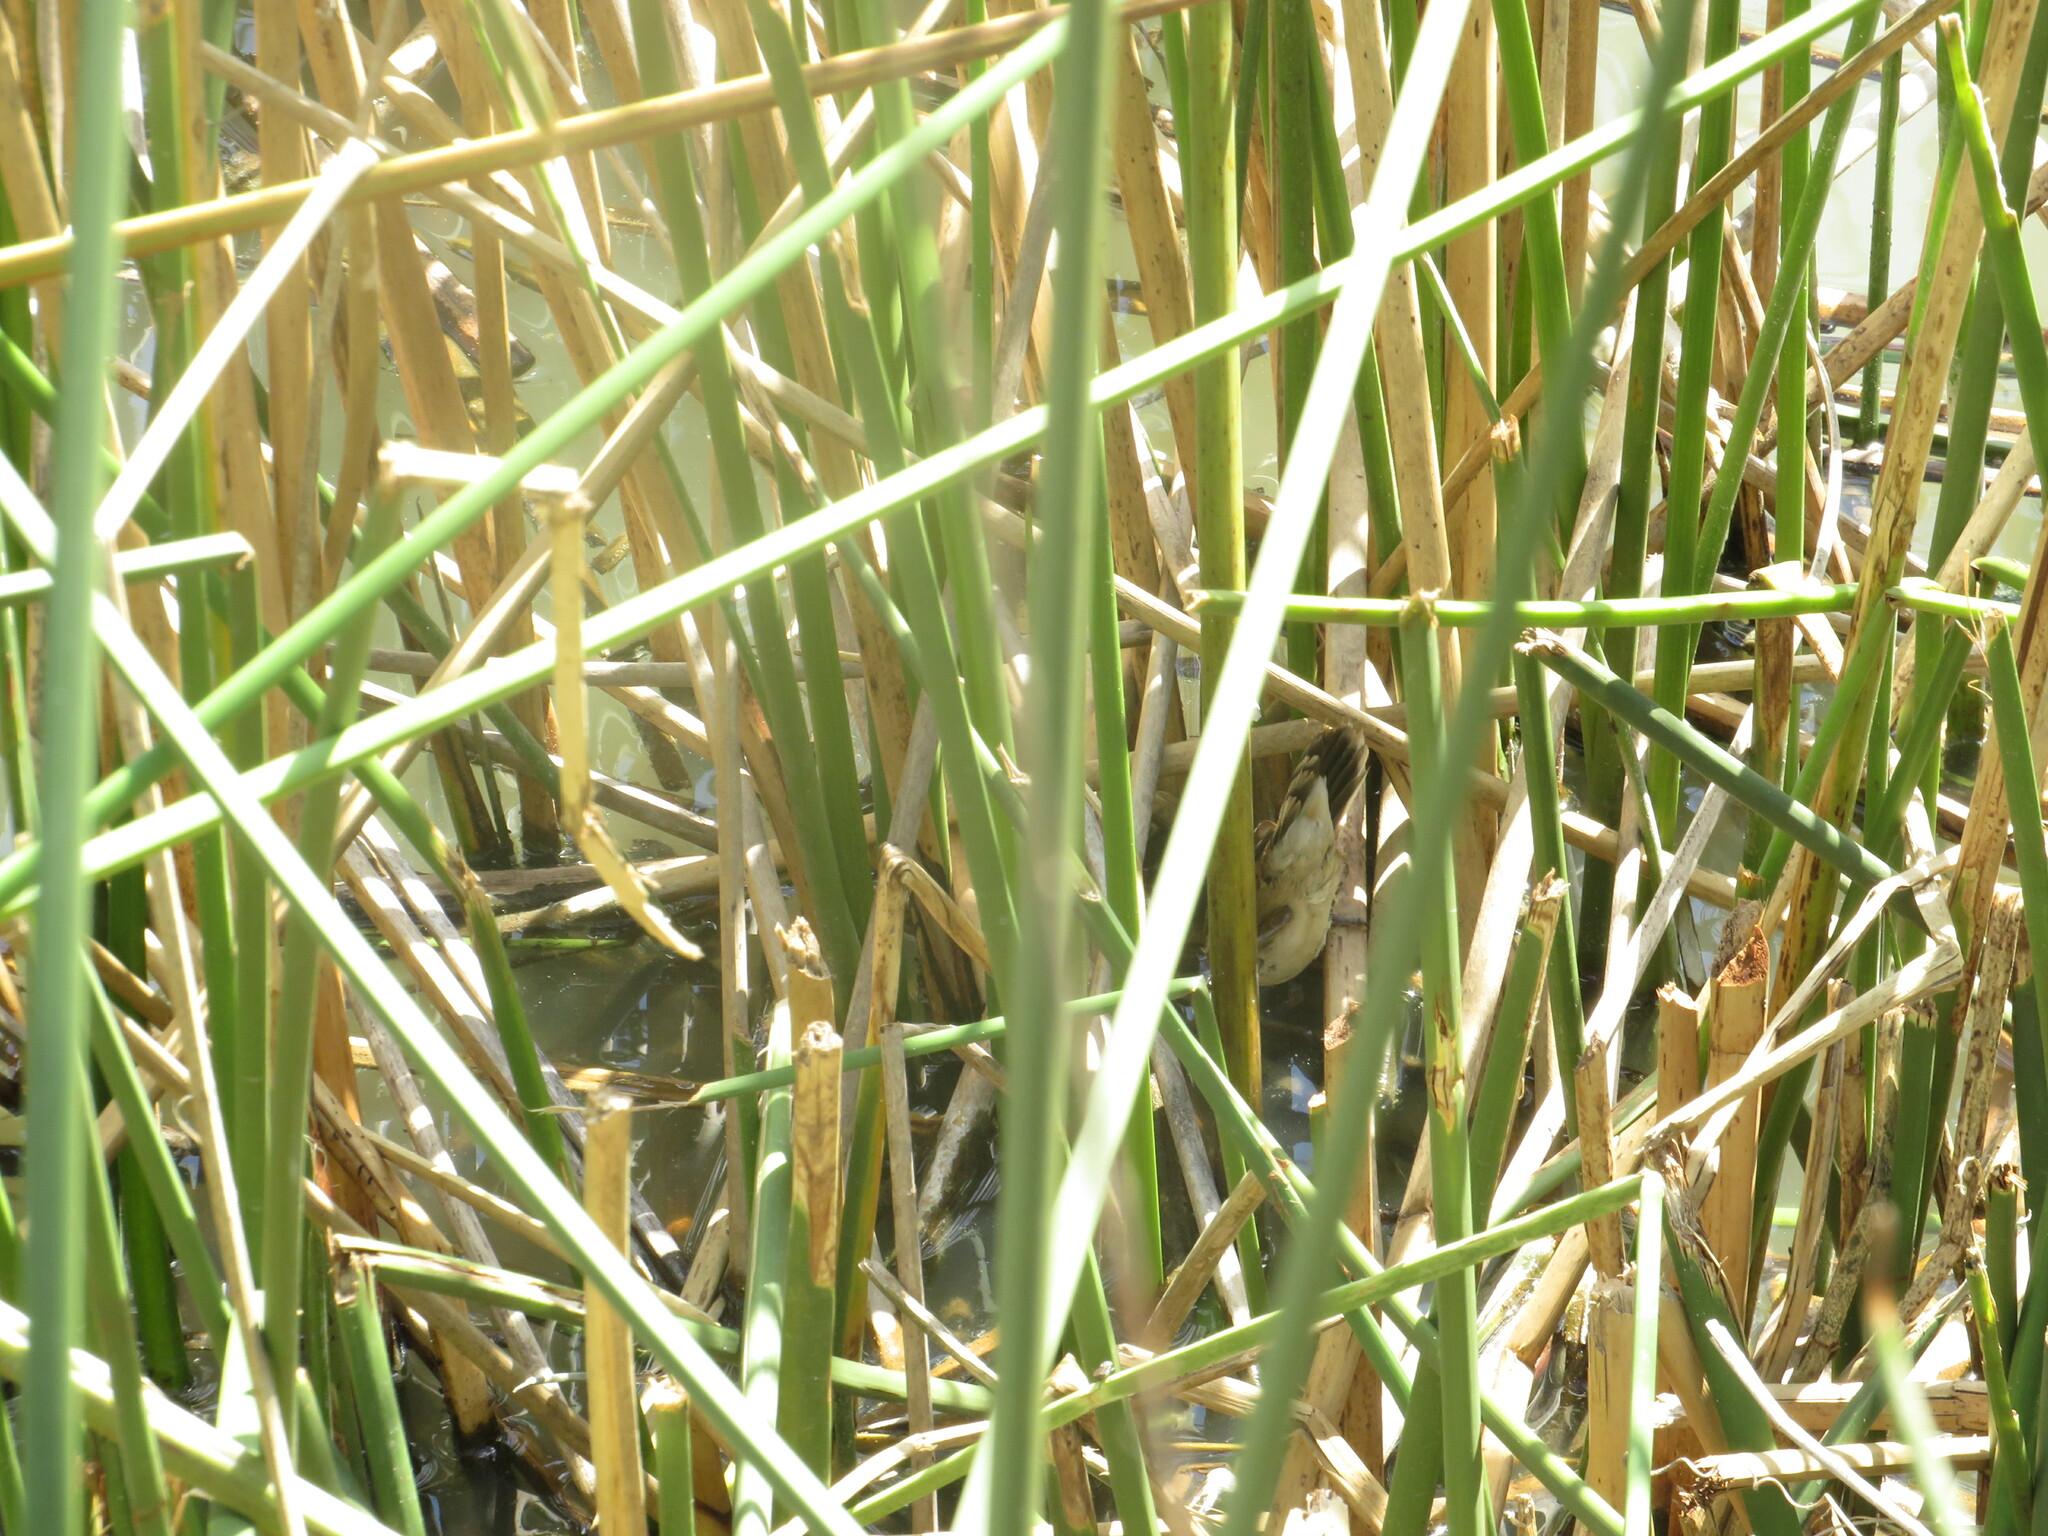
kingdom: Animalia
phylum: Chordata
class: Aves
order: Passeriformes
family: Furnariidae
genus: Phleocryptes
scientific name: Phleocryptes melanops
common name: Wren-like rushbird
